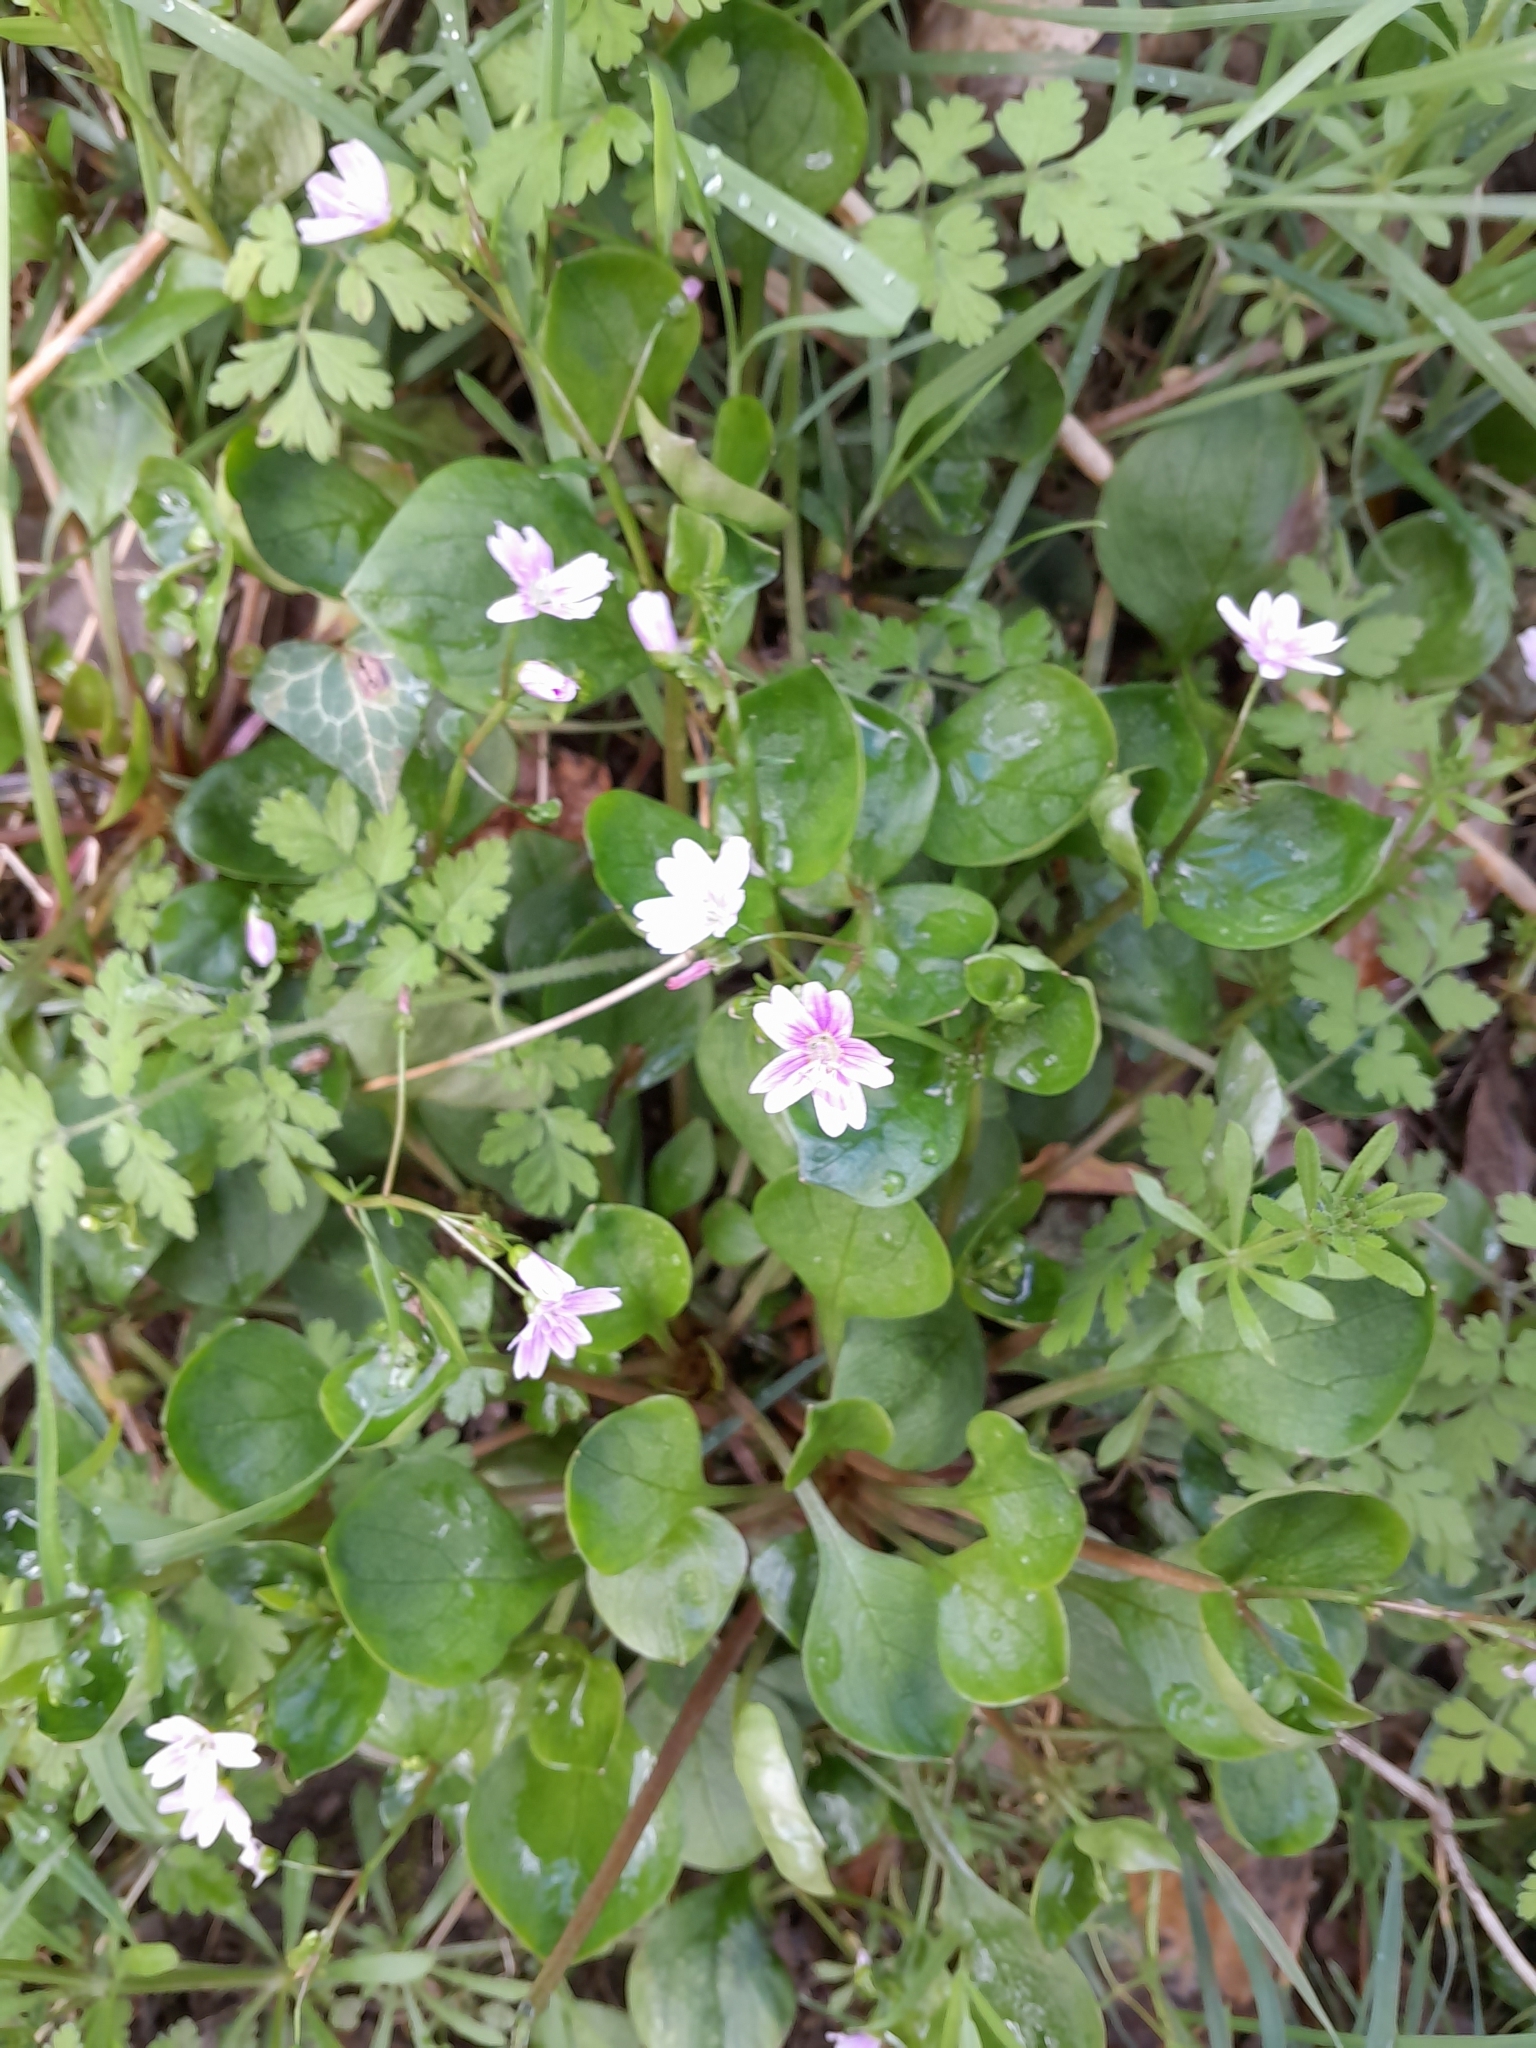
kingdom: Plantae
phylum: Tracheophyta
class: Magnoliopsida
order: Caryophyllales
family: Montiaceae
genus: Claytonia
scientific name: Claytonia sibirica
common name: Pink purslane
